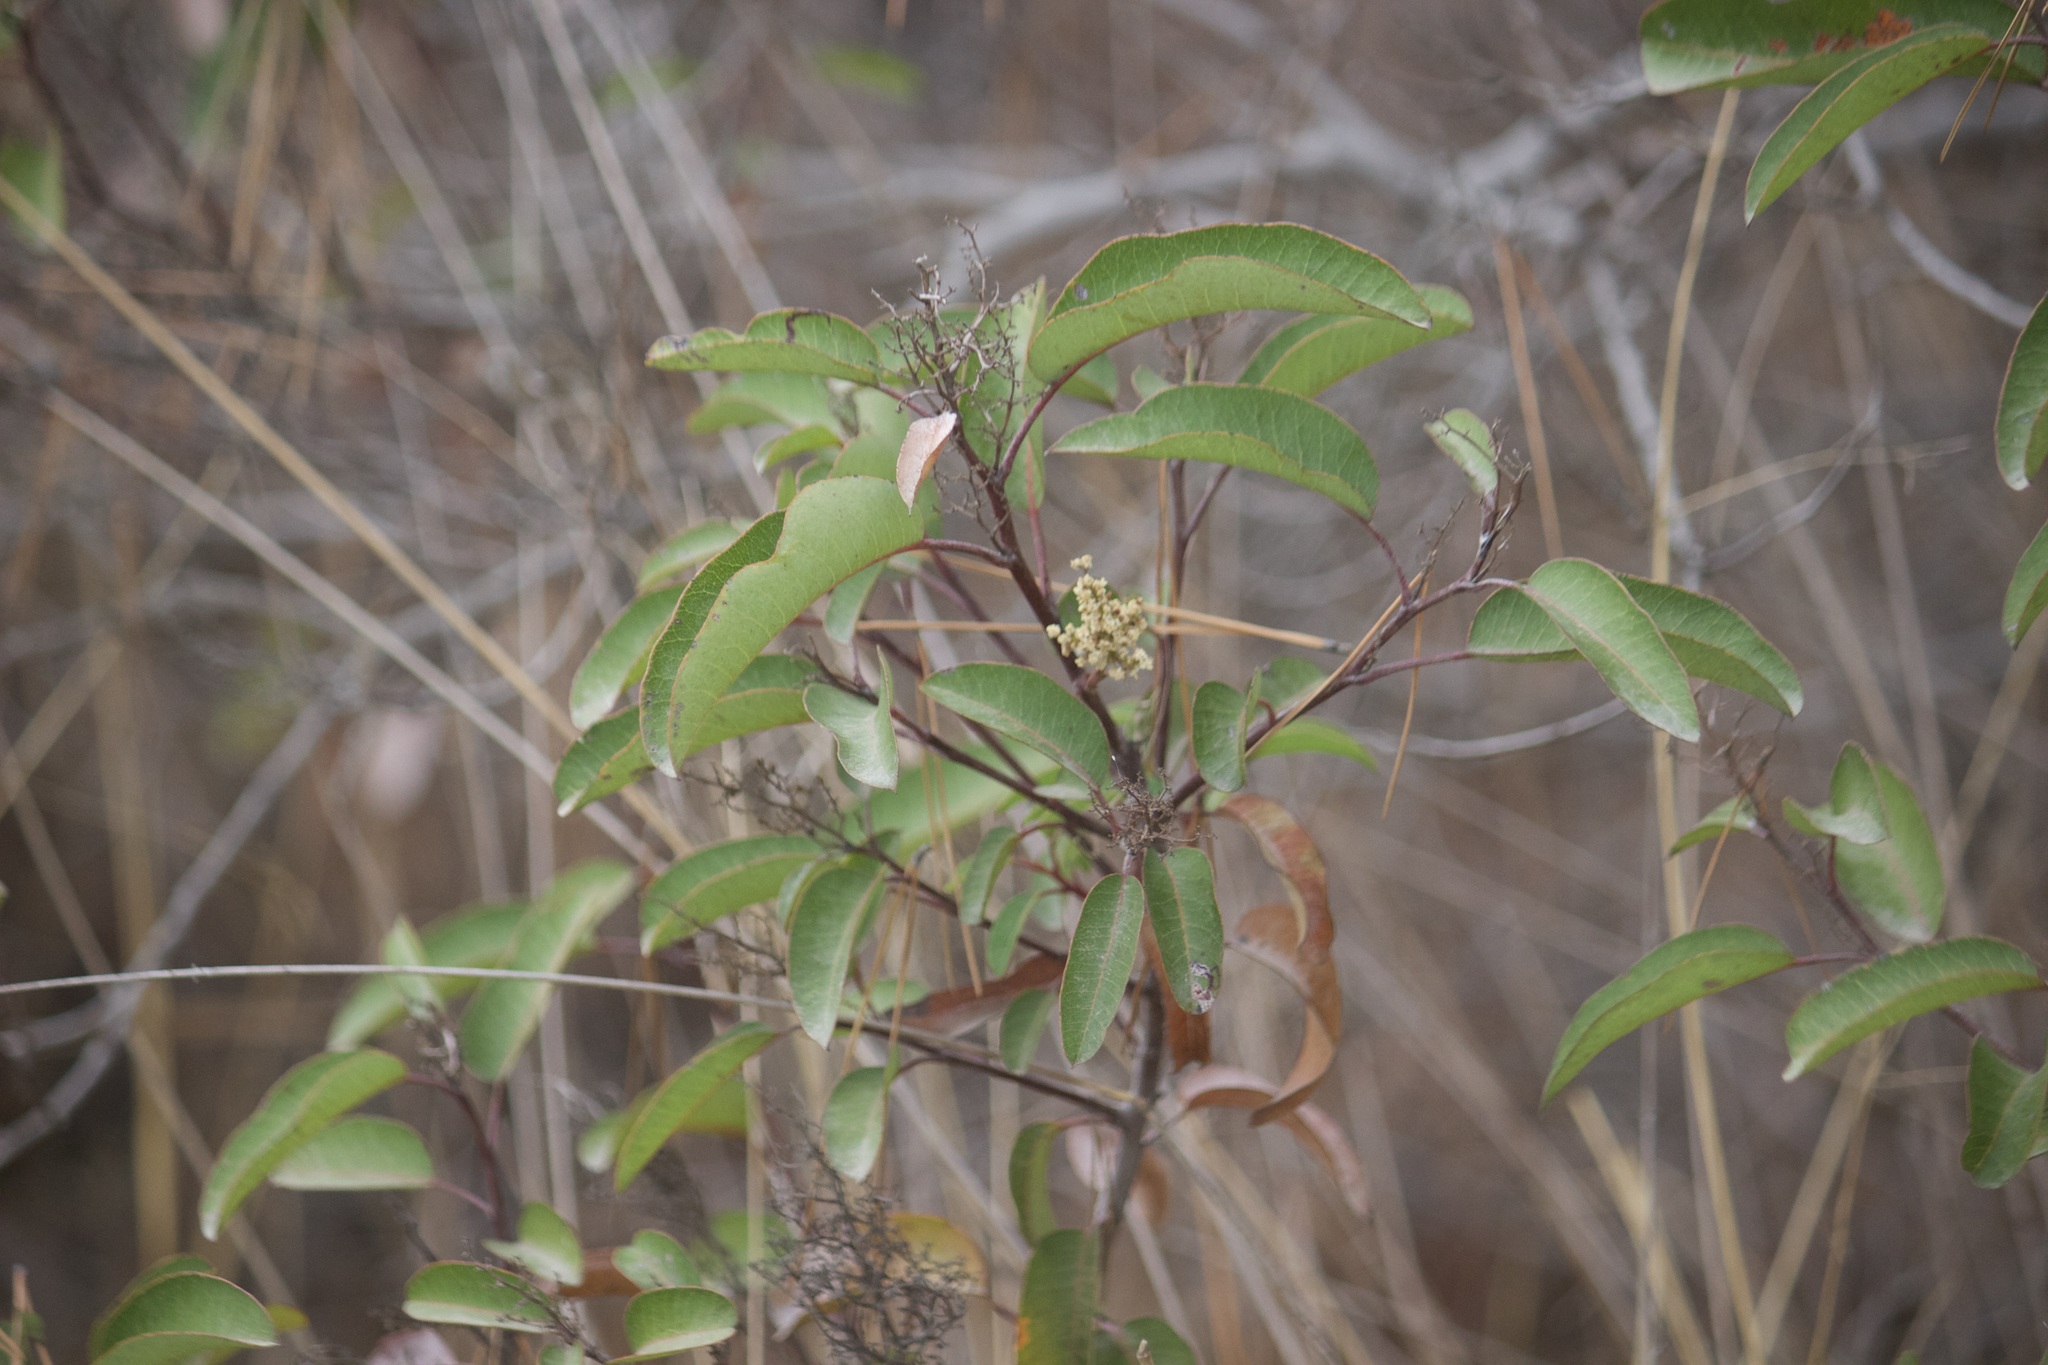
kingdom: Plantae
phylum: Tracheophyta
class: Magnoliopsida
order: Sapindales
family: Anacardiaceae
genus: Malosma
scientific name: Malosma laurina
